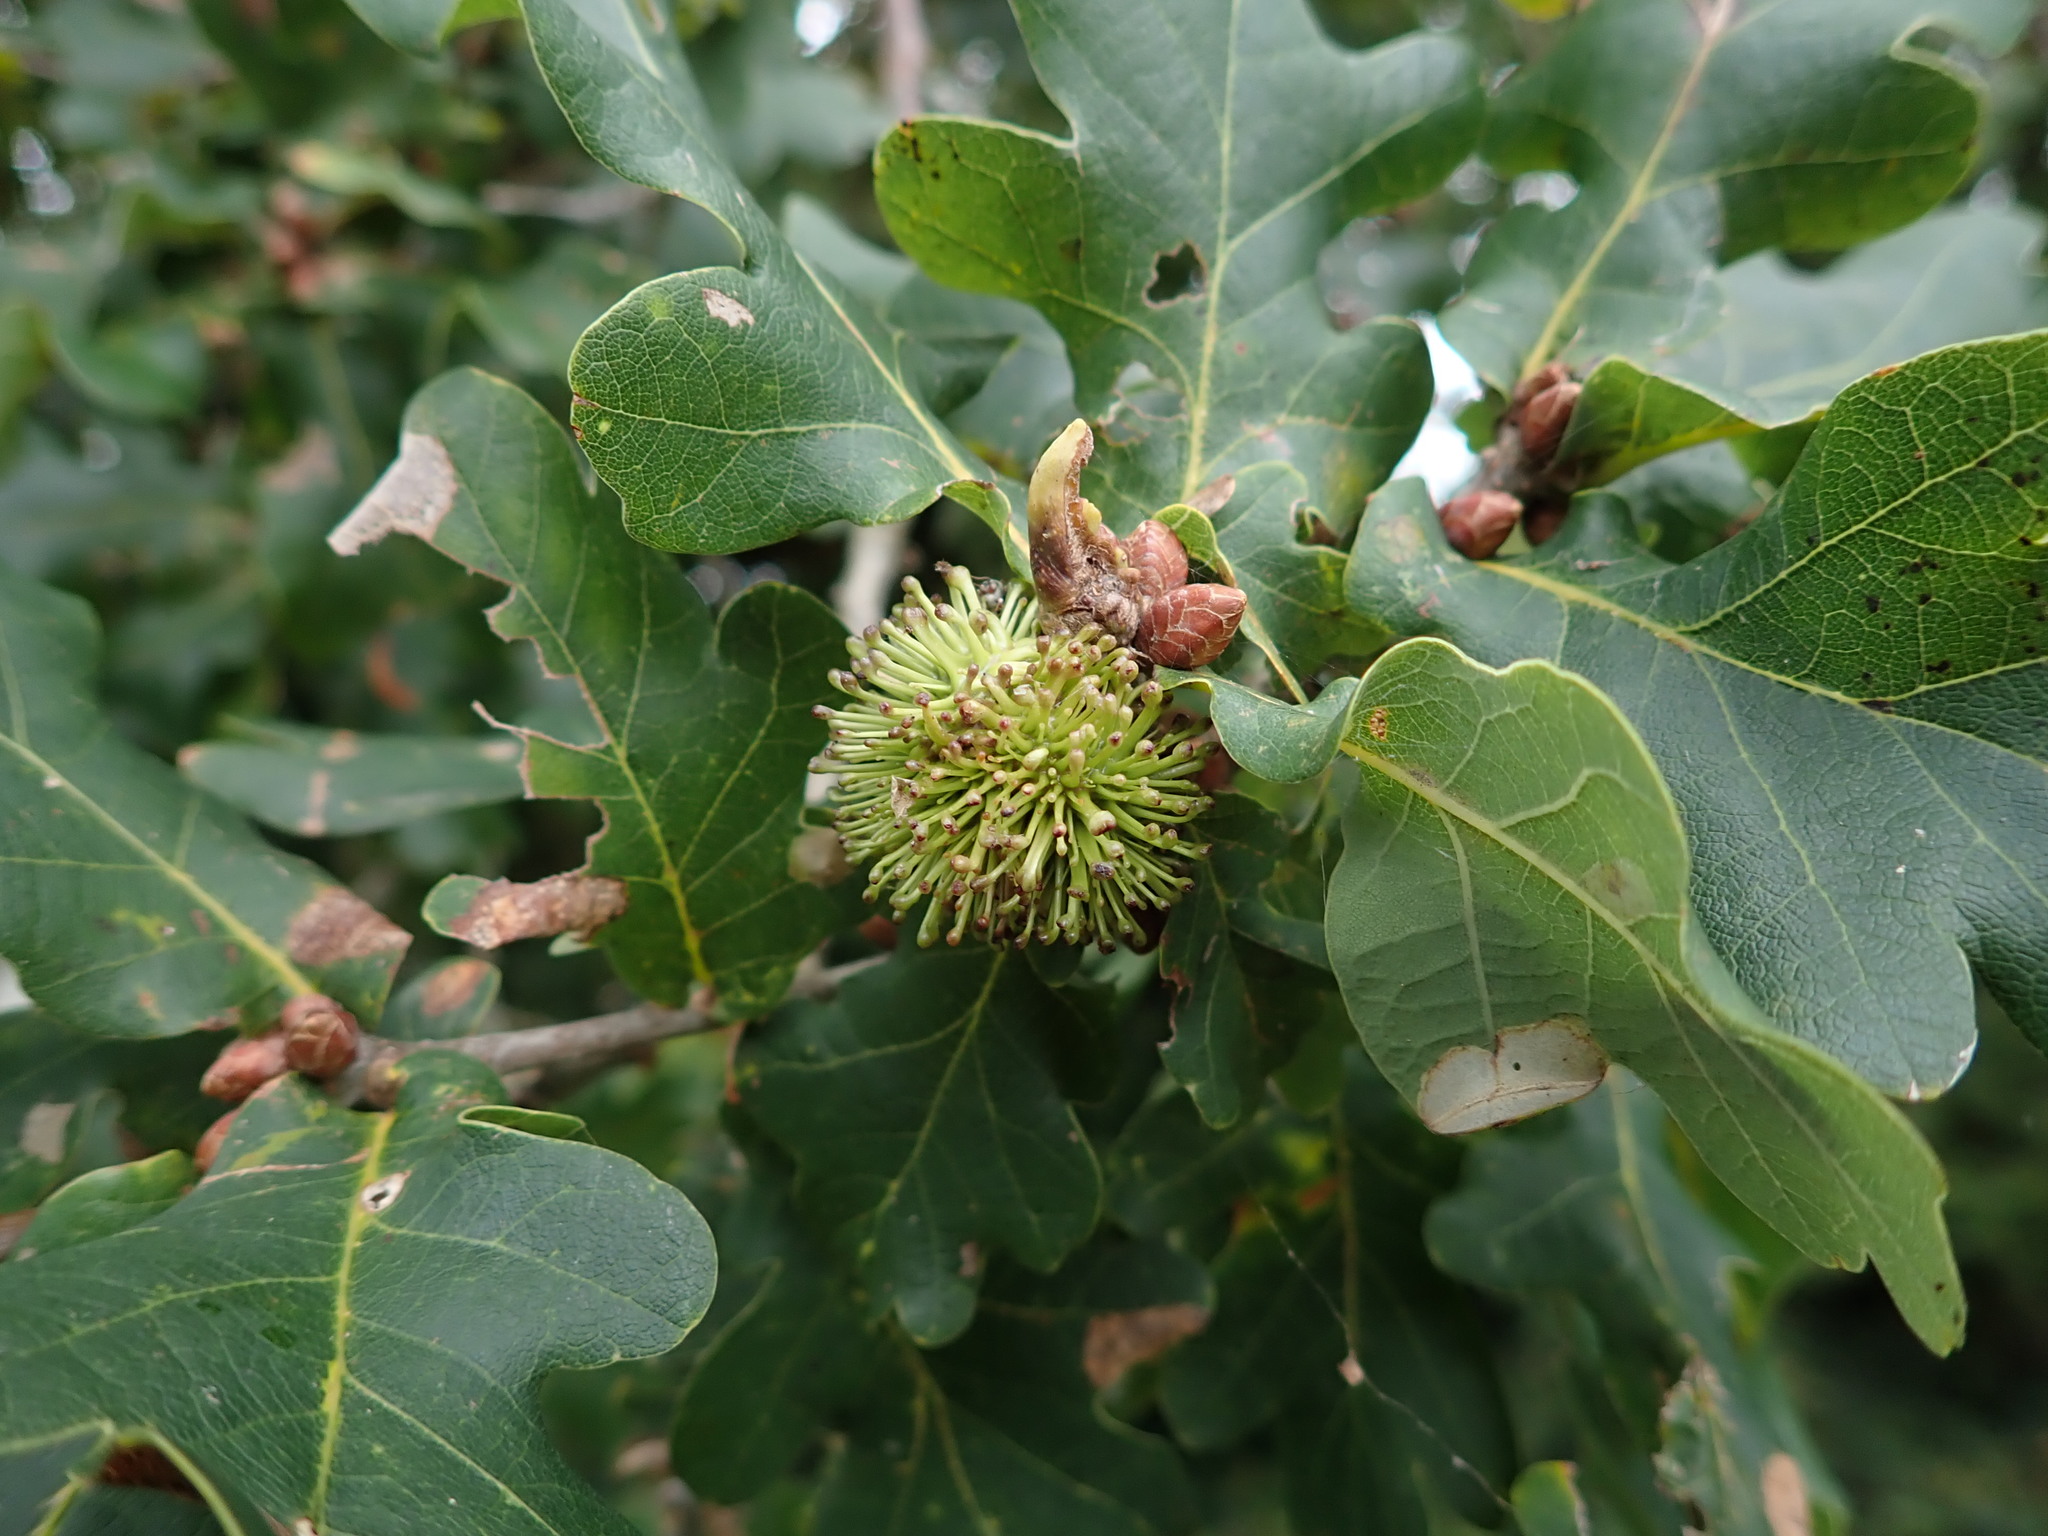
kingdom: Animalia
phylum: Arthropoda
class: Insecta
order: Hymenoptera
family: Cynipidae
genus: Andricus
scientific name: Andricus lucidus
